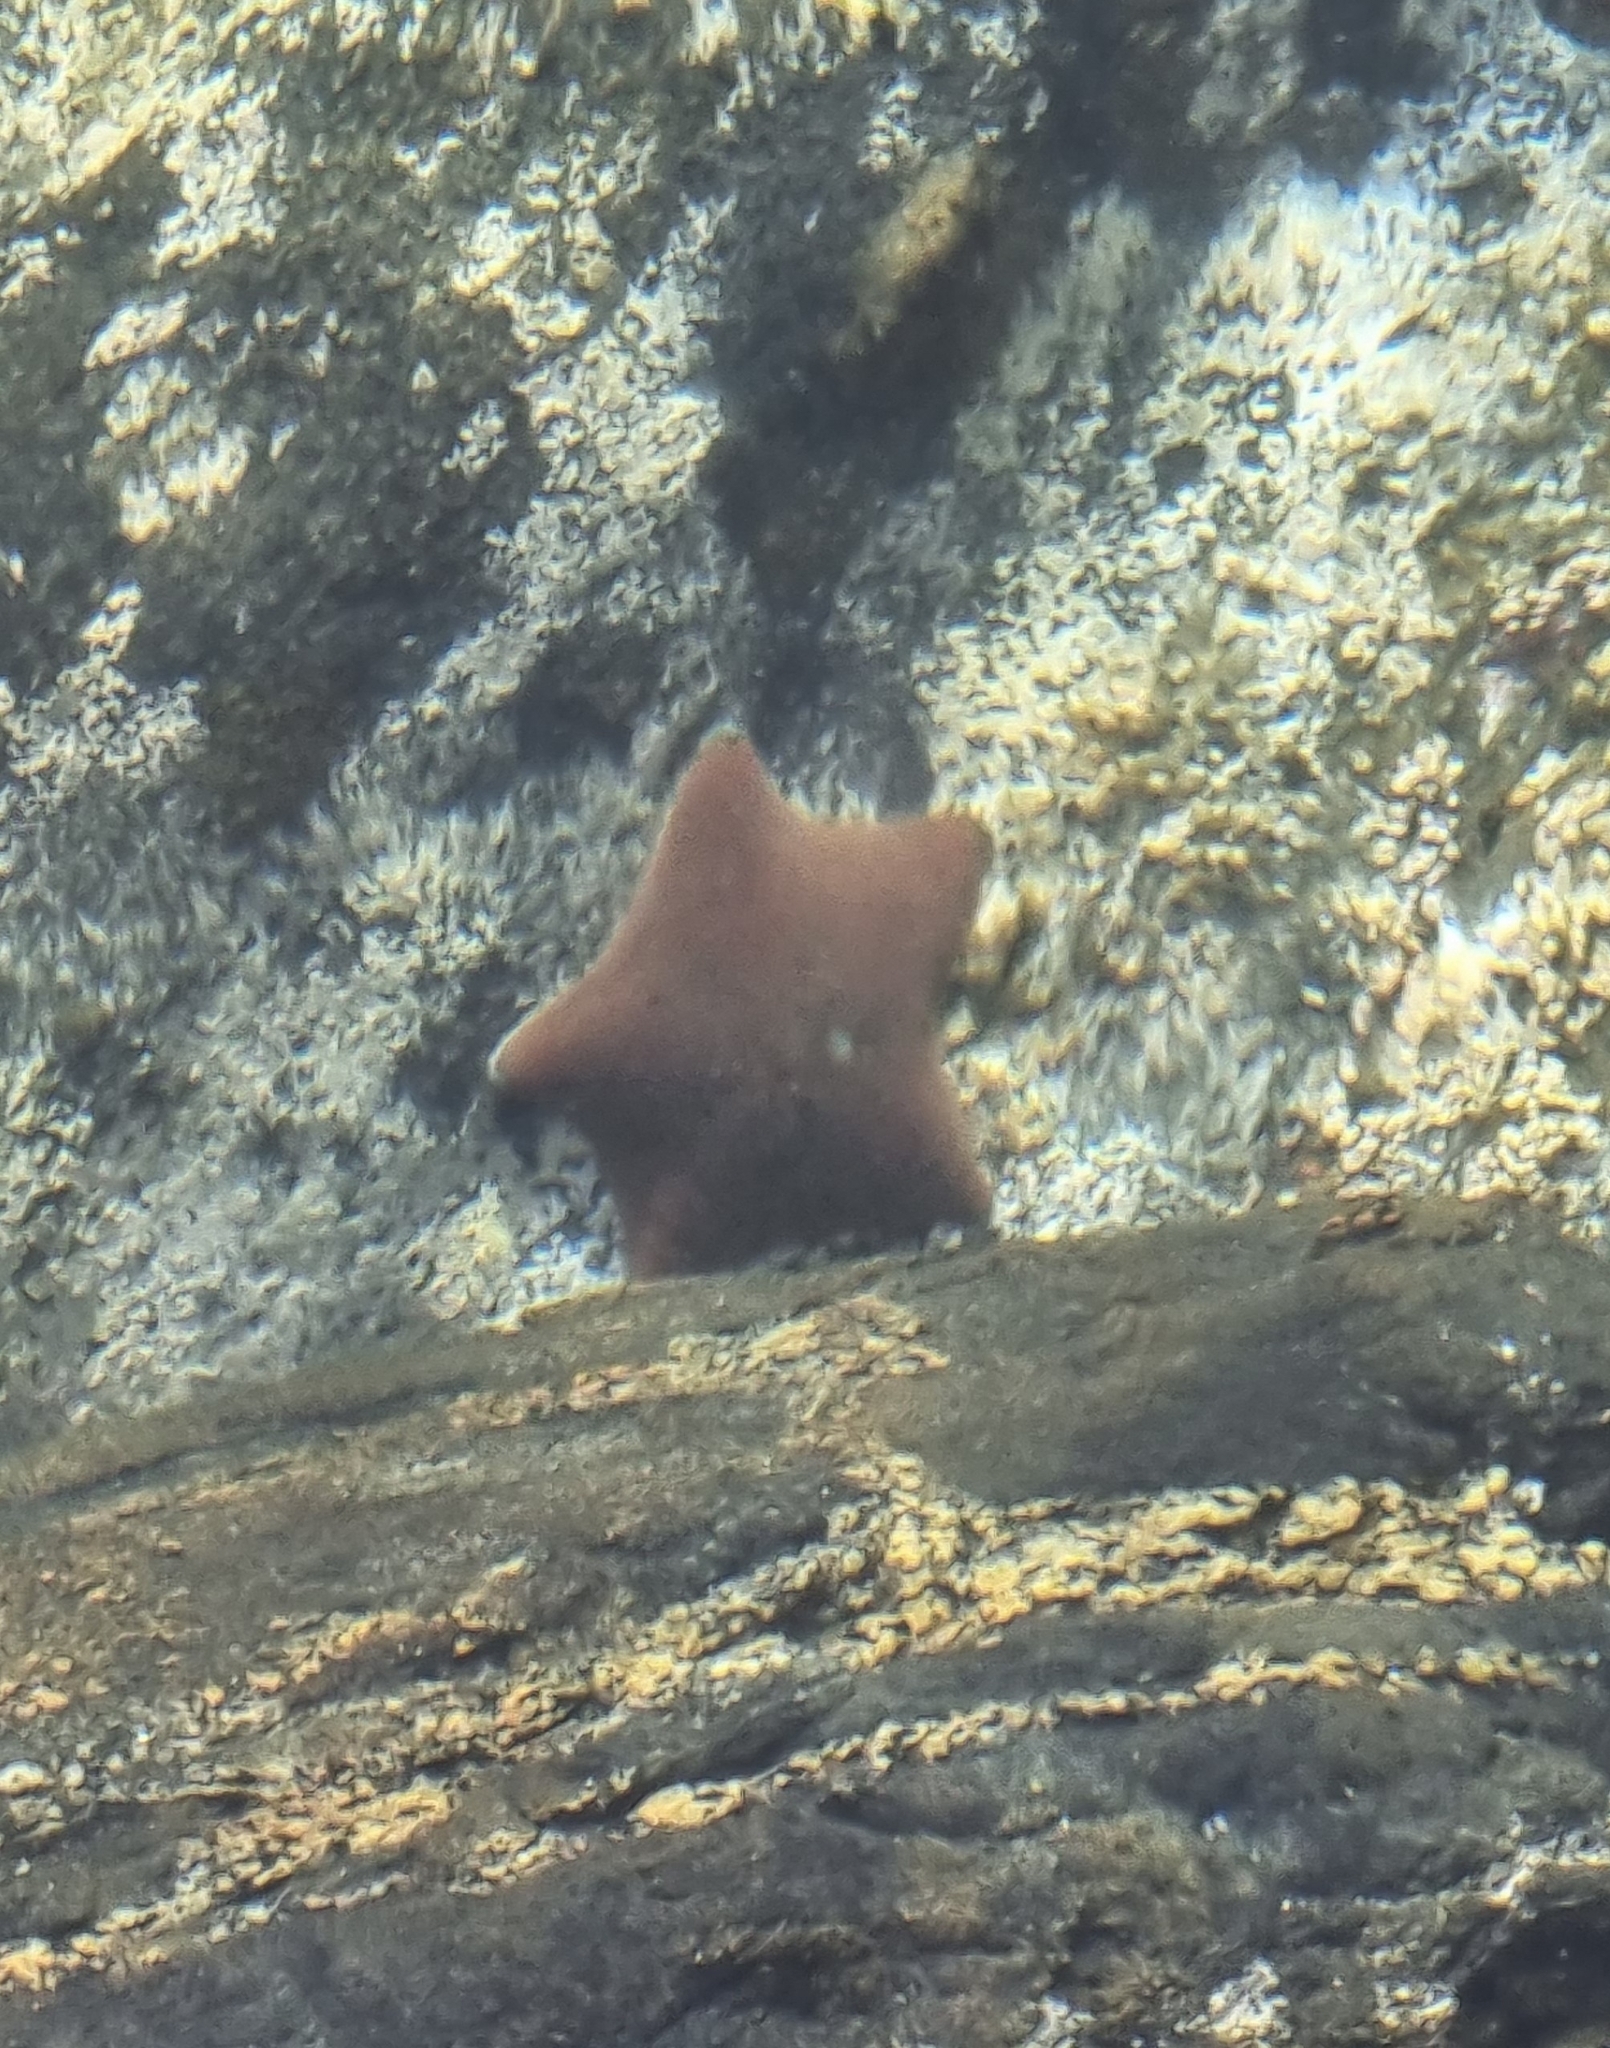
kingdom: Animalia
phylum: Echinodermata
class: Asteroidea
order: Valvatida
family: Asterinidae
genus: Patiriella
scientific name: Patiriella regularis
